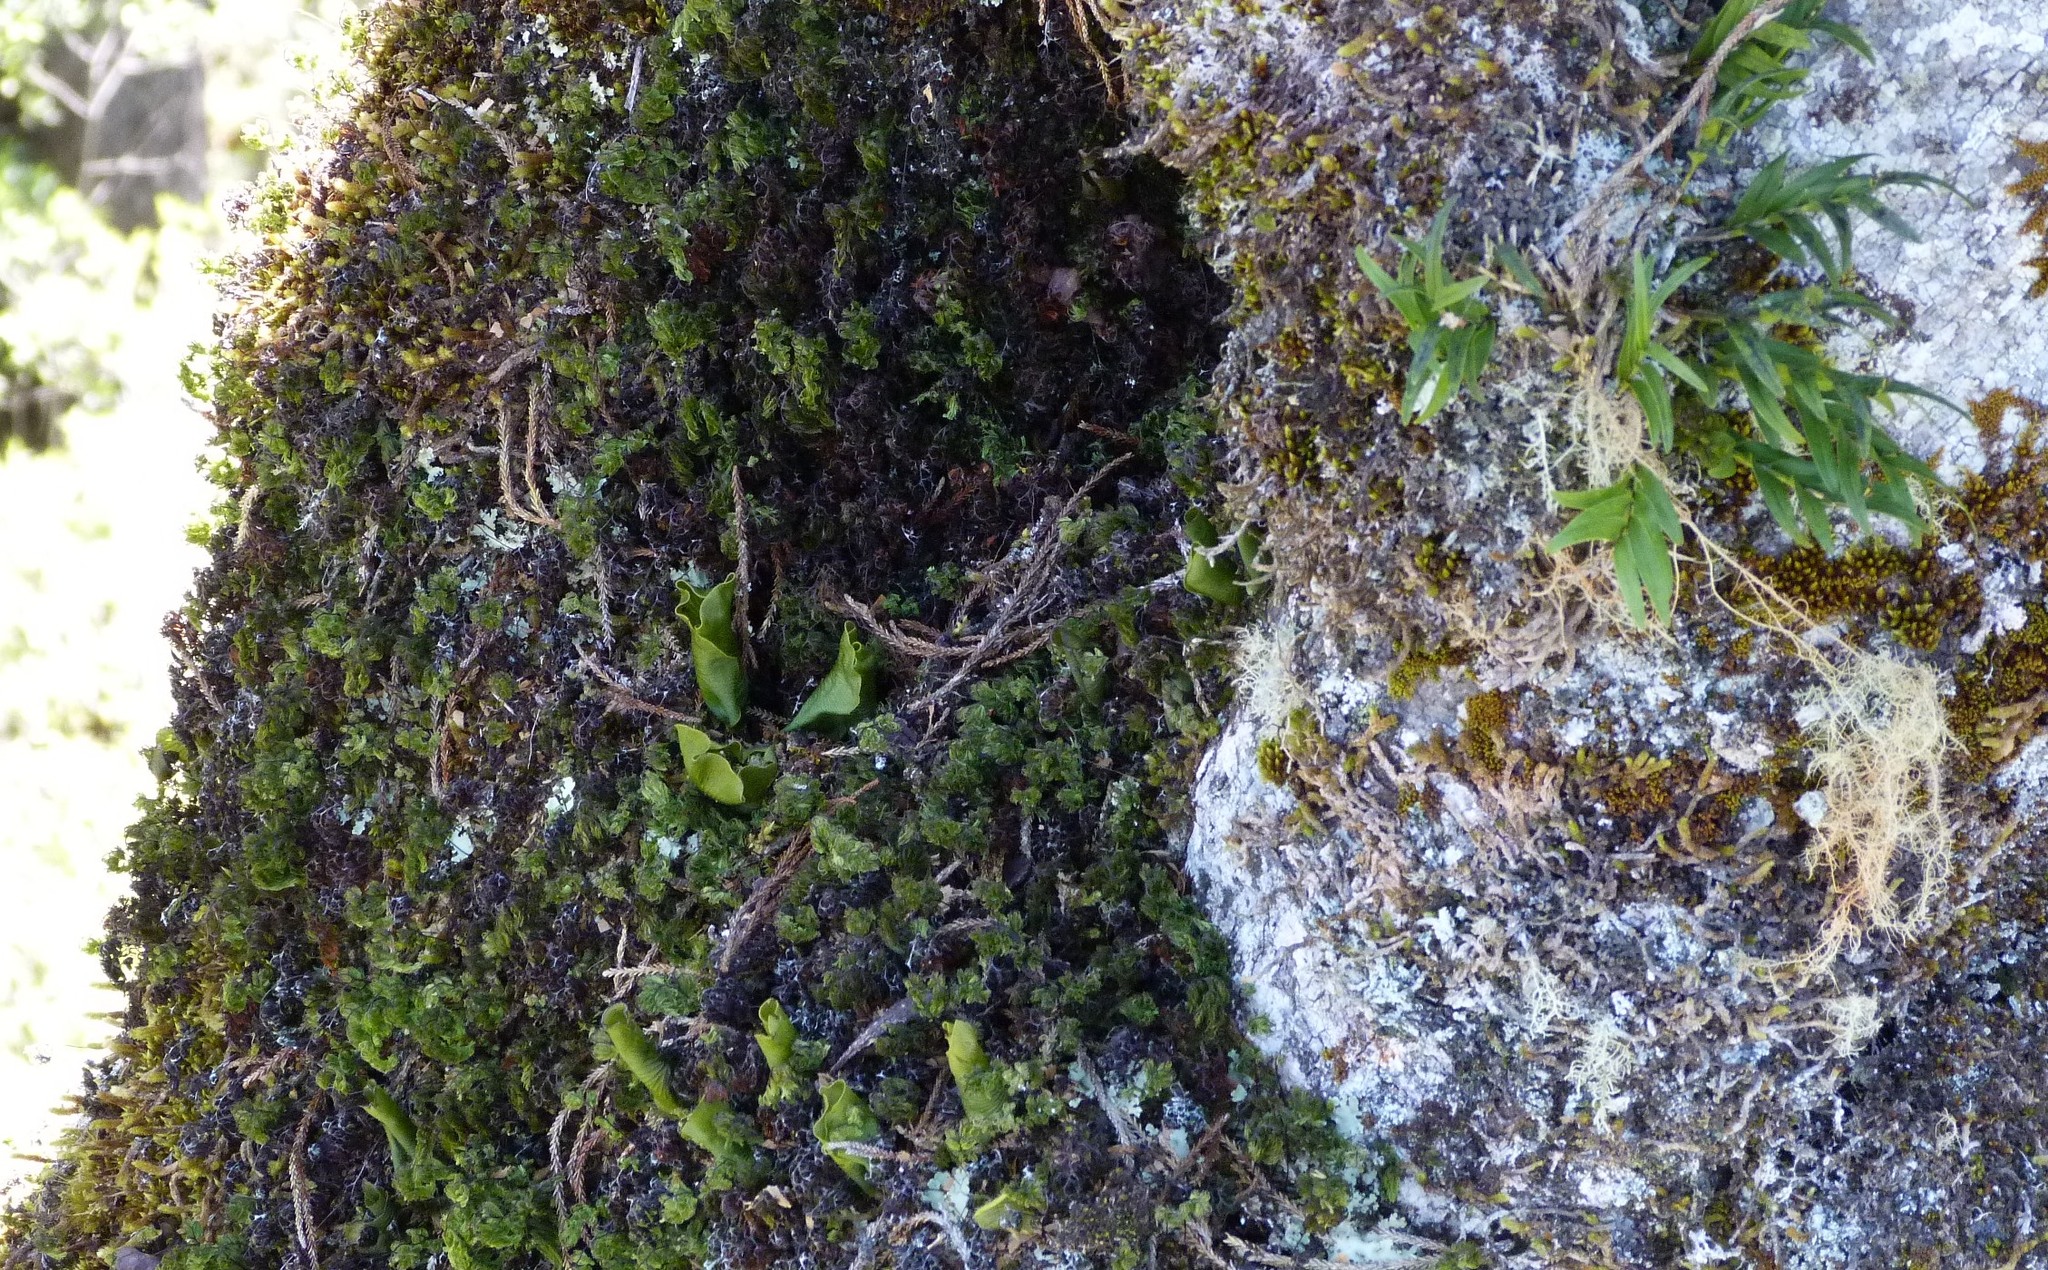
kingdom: Plantae
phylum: Tracheophyta
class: Polypodiopsida
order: Hymenophyllales
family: Hymenophyllaceae
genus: Hymenophyllum
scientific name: Hymenophyllum nephrophyllum
